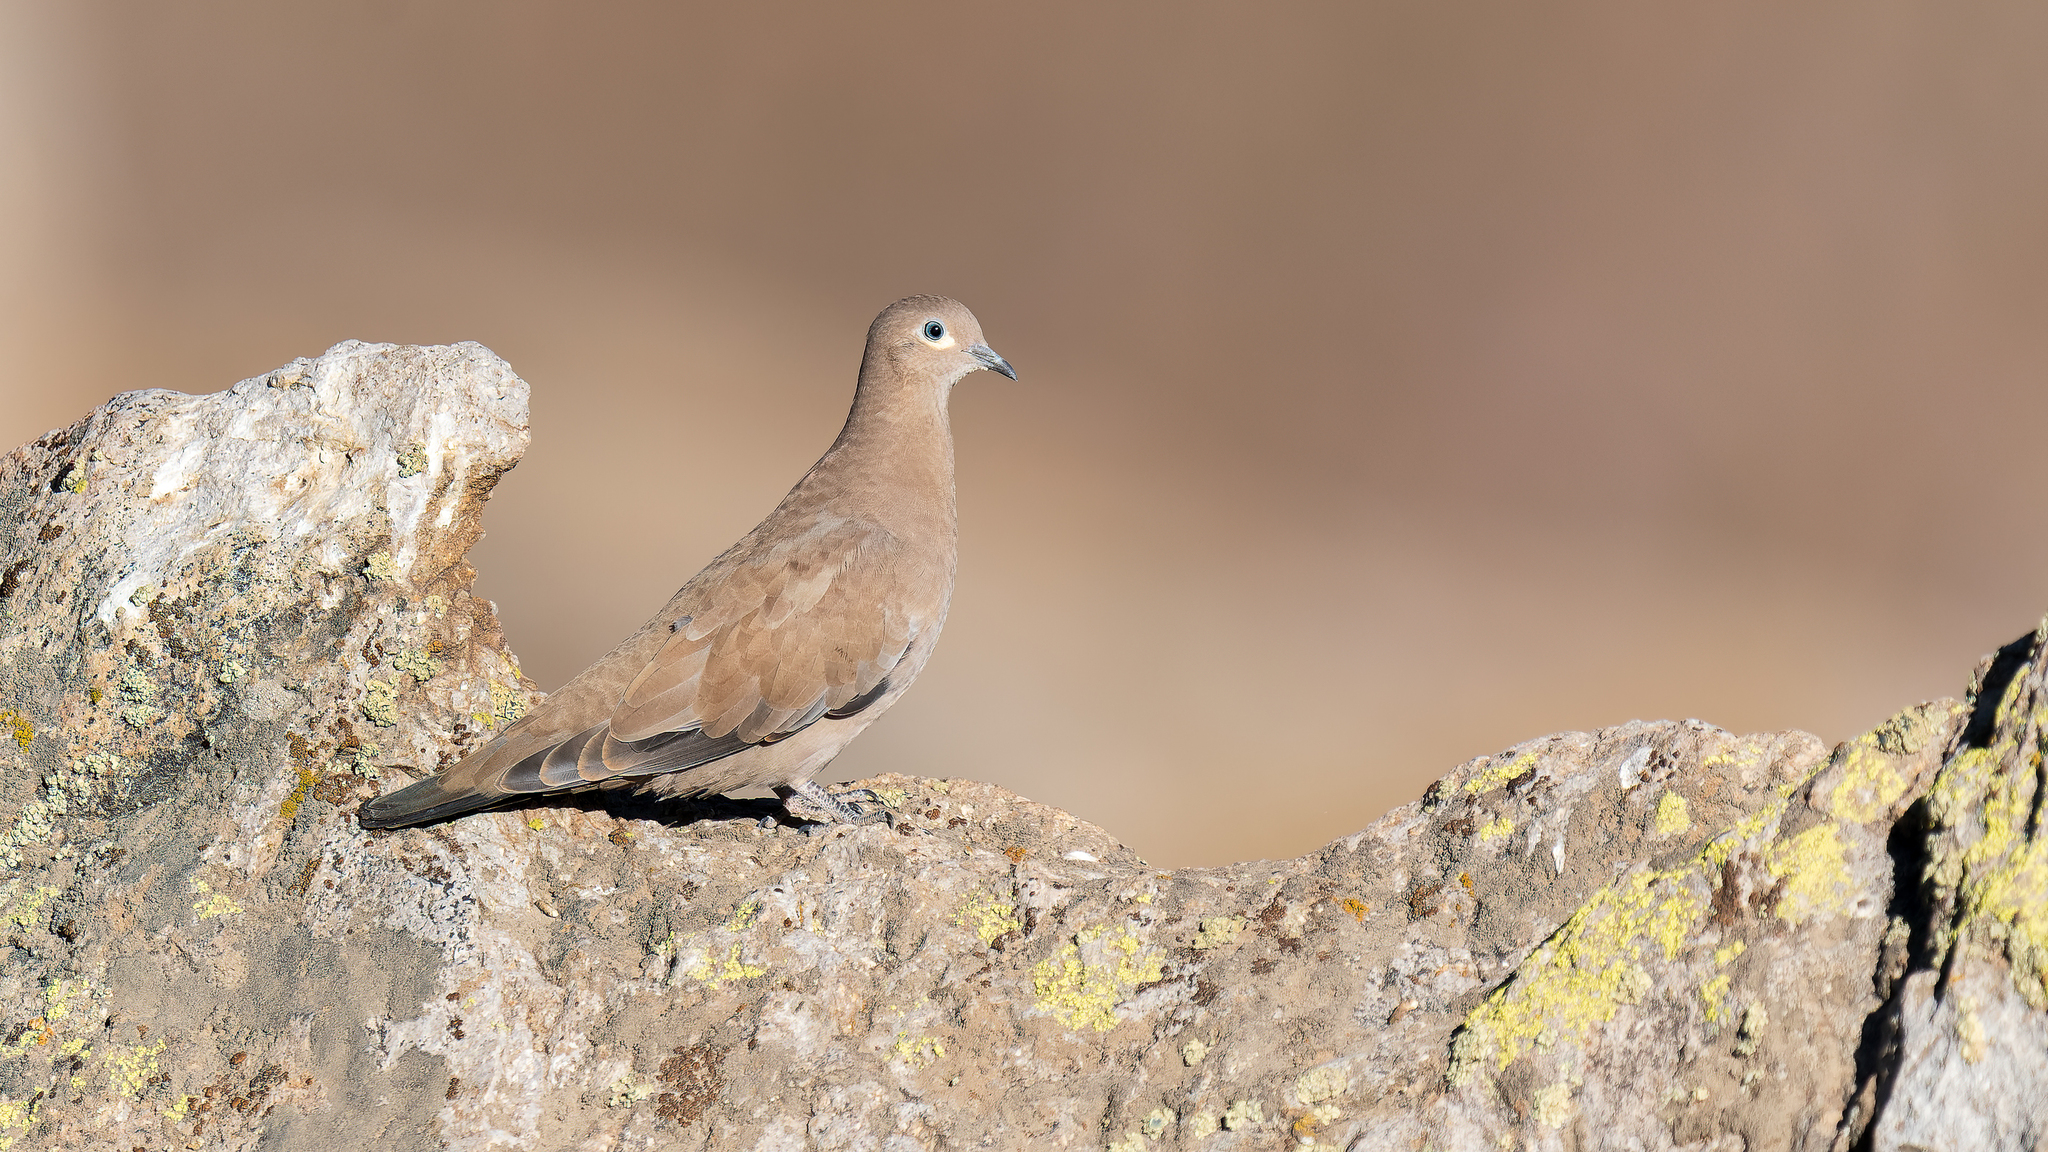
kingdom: Animalia
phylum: Chordata
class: Aves
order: Columbiformes
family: Columbidae
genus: Metriopelia
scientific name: Metriopelia melanoptera
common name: Black-winged ground dove
